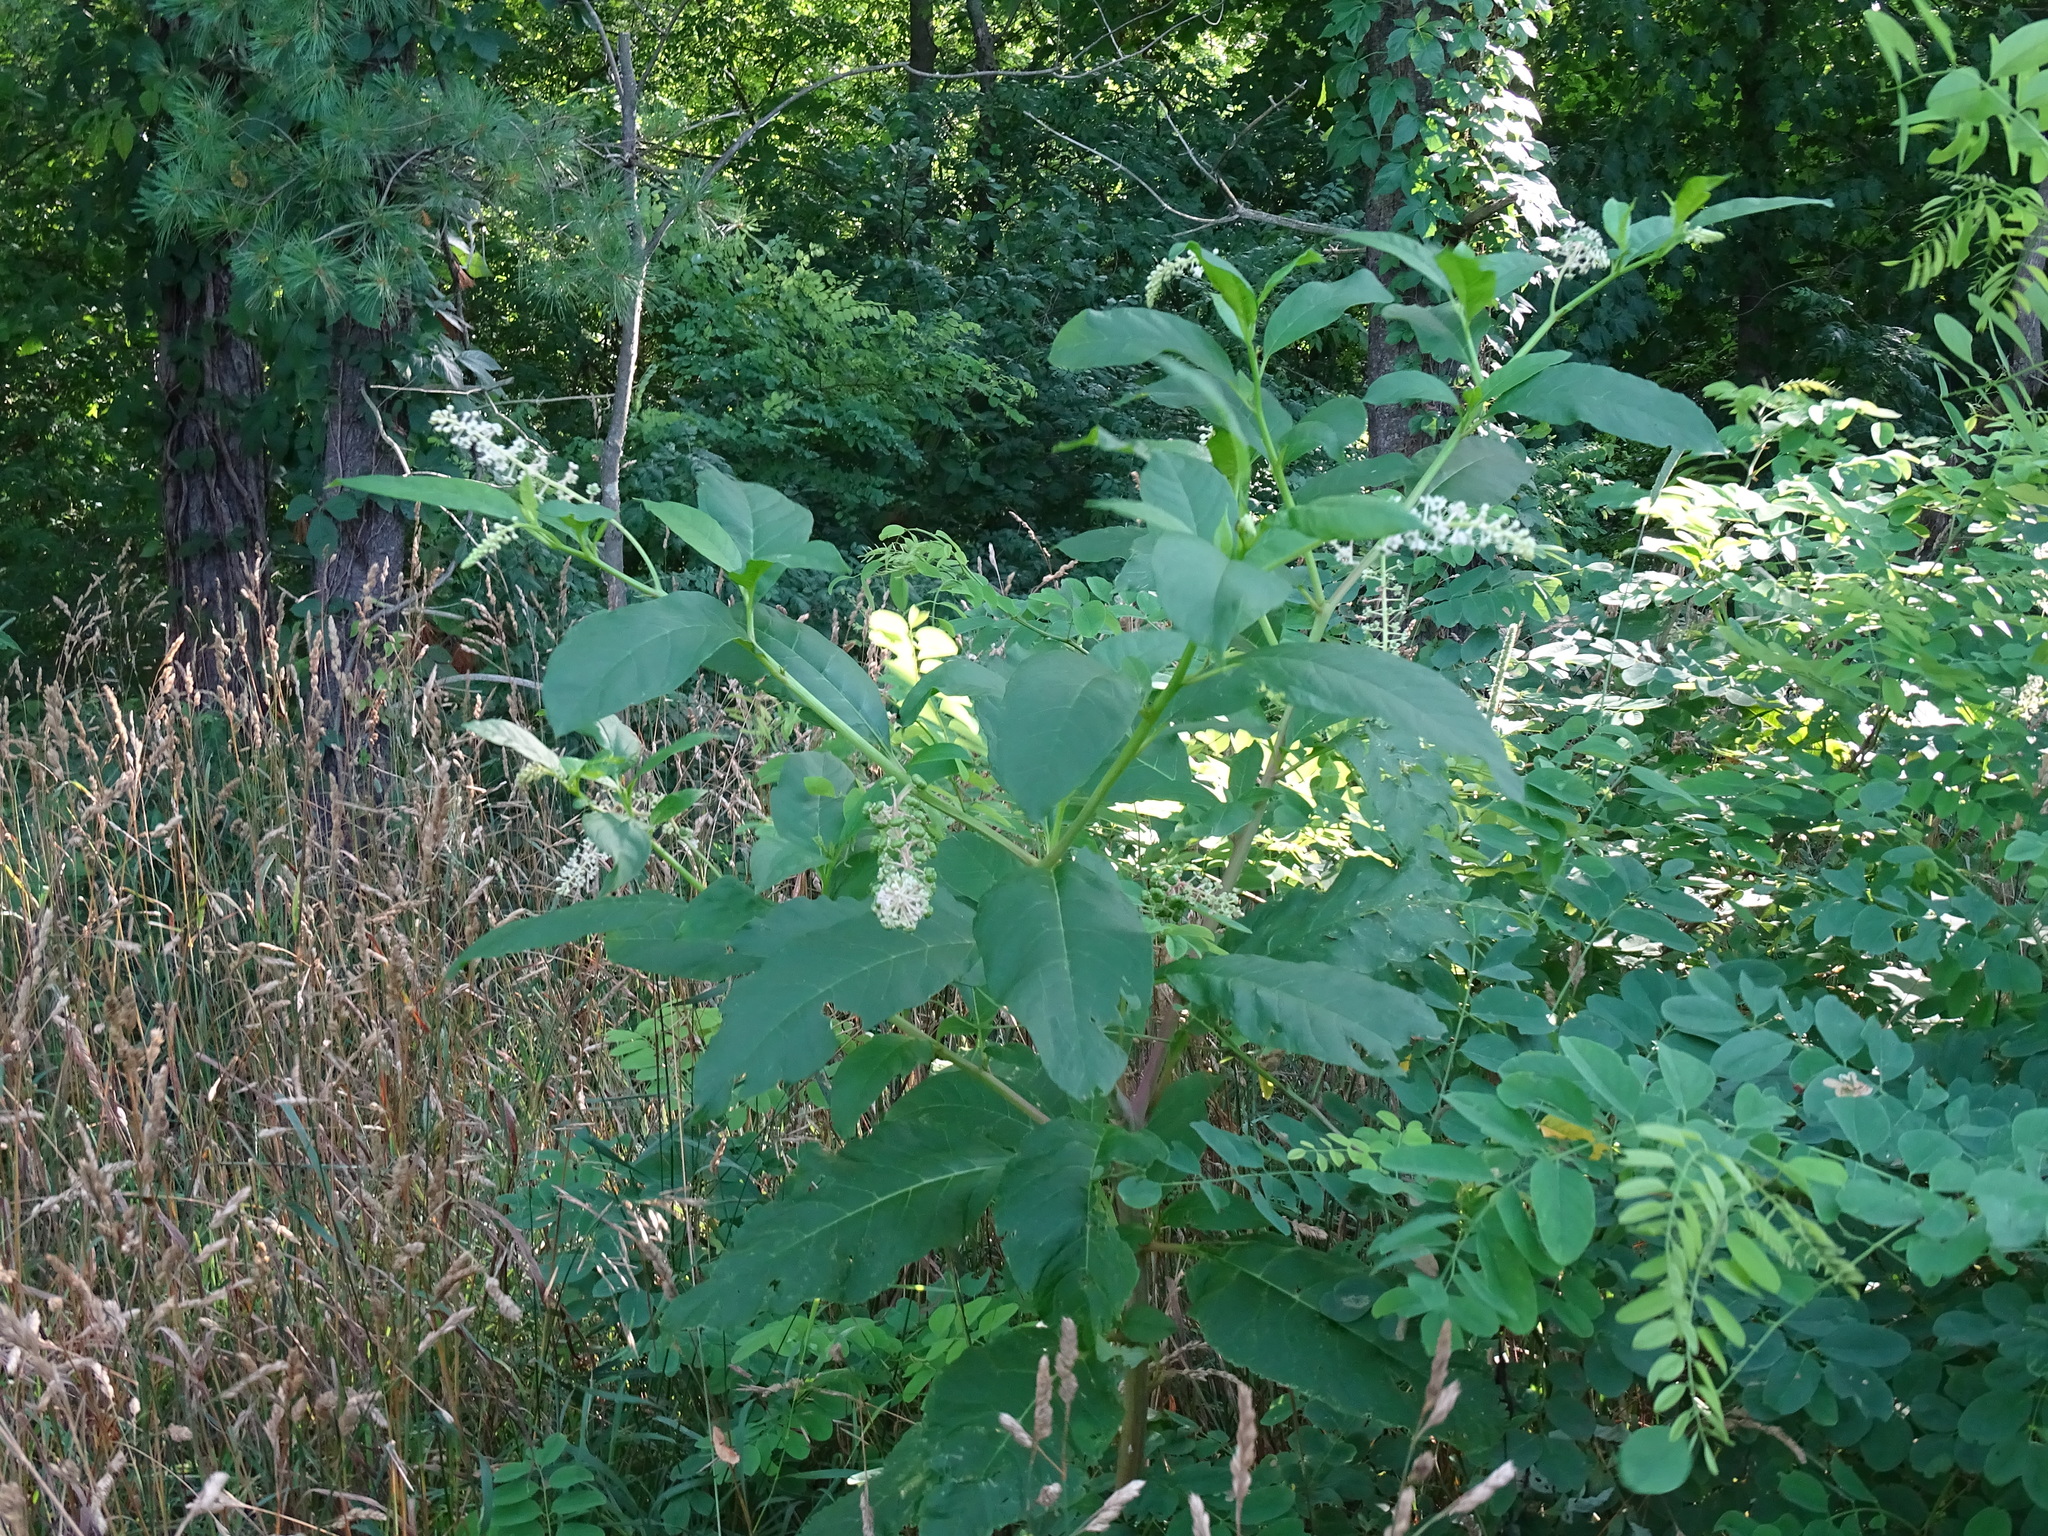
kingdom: Plantae
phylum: Tracheophyta
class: Magnoliopsida
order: Caryophyllales
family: Phytolaccaceae
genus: Phytolacca
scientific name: Phytolacca americana
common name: American pokeweed
